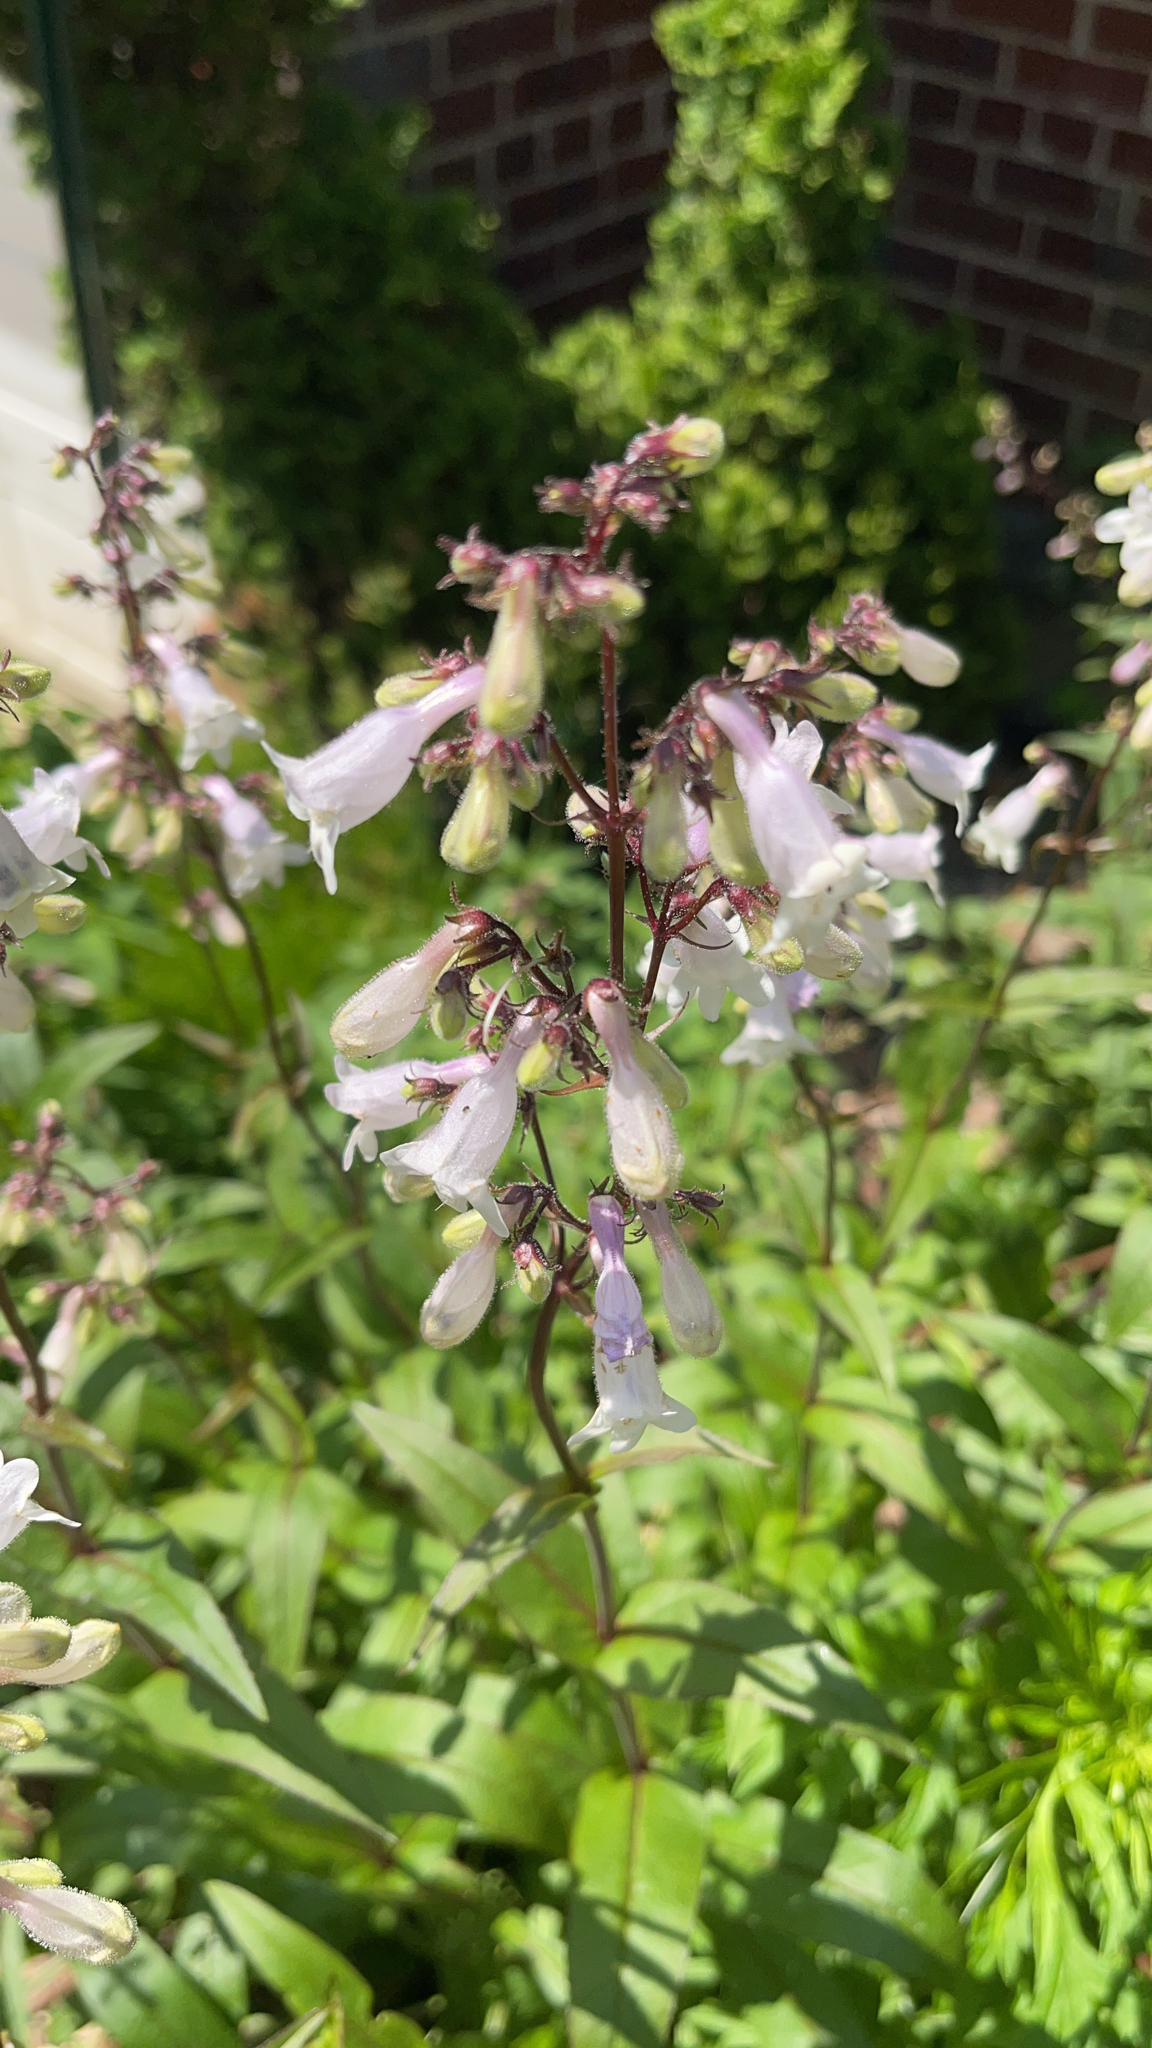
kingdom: Plantae
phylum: Tracheophyta
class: Magnoliopsida
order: Lamiales
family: Plantaginaceae
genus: Penstemon
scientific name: Penstemon digitalis
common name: Foxglove beardtongue
